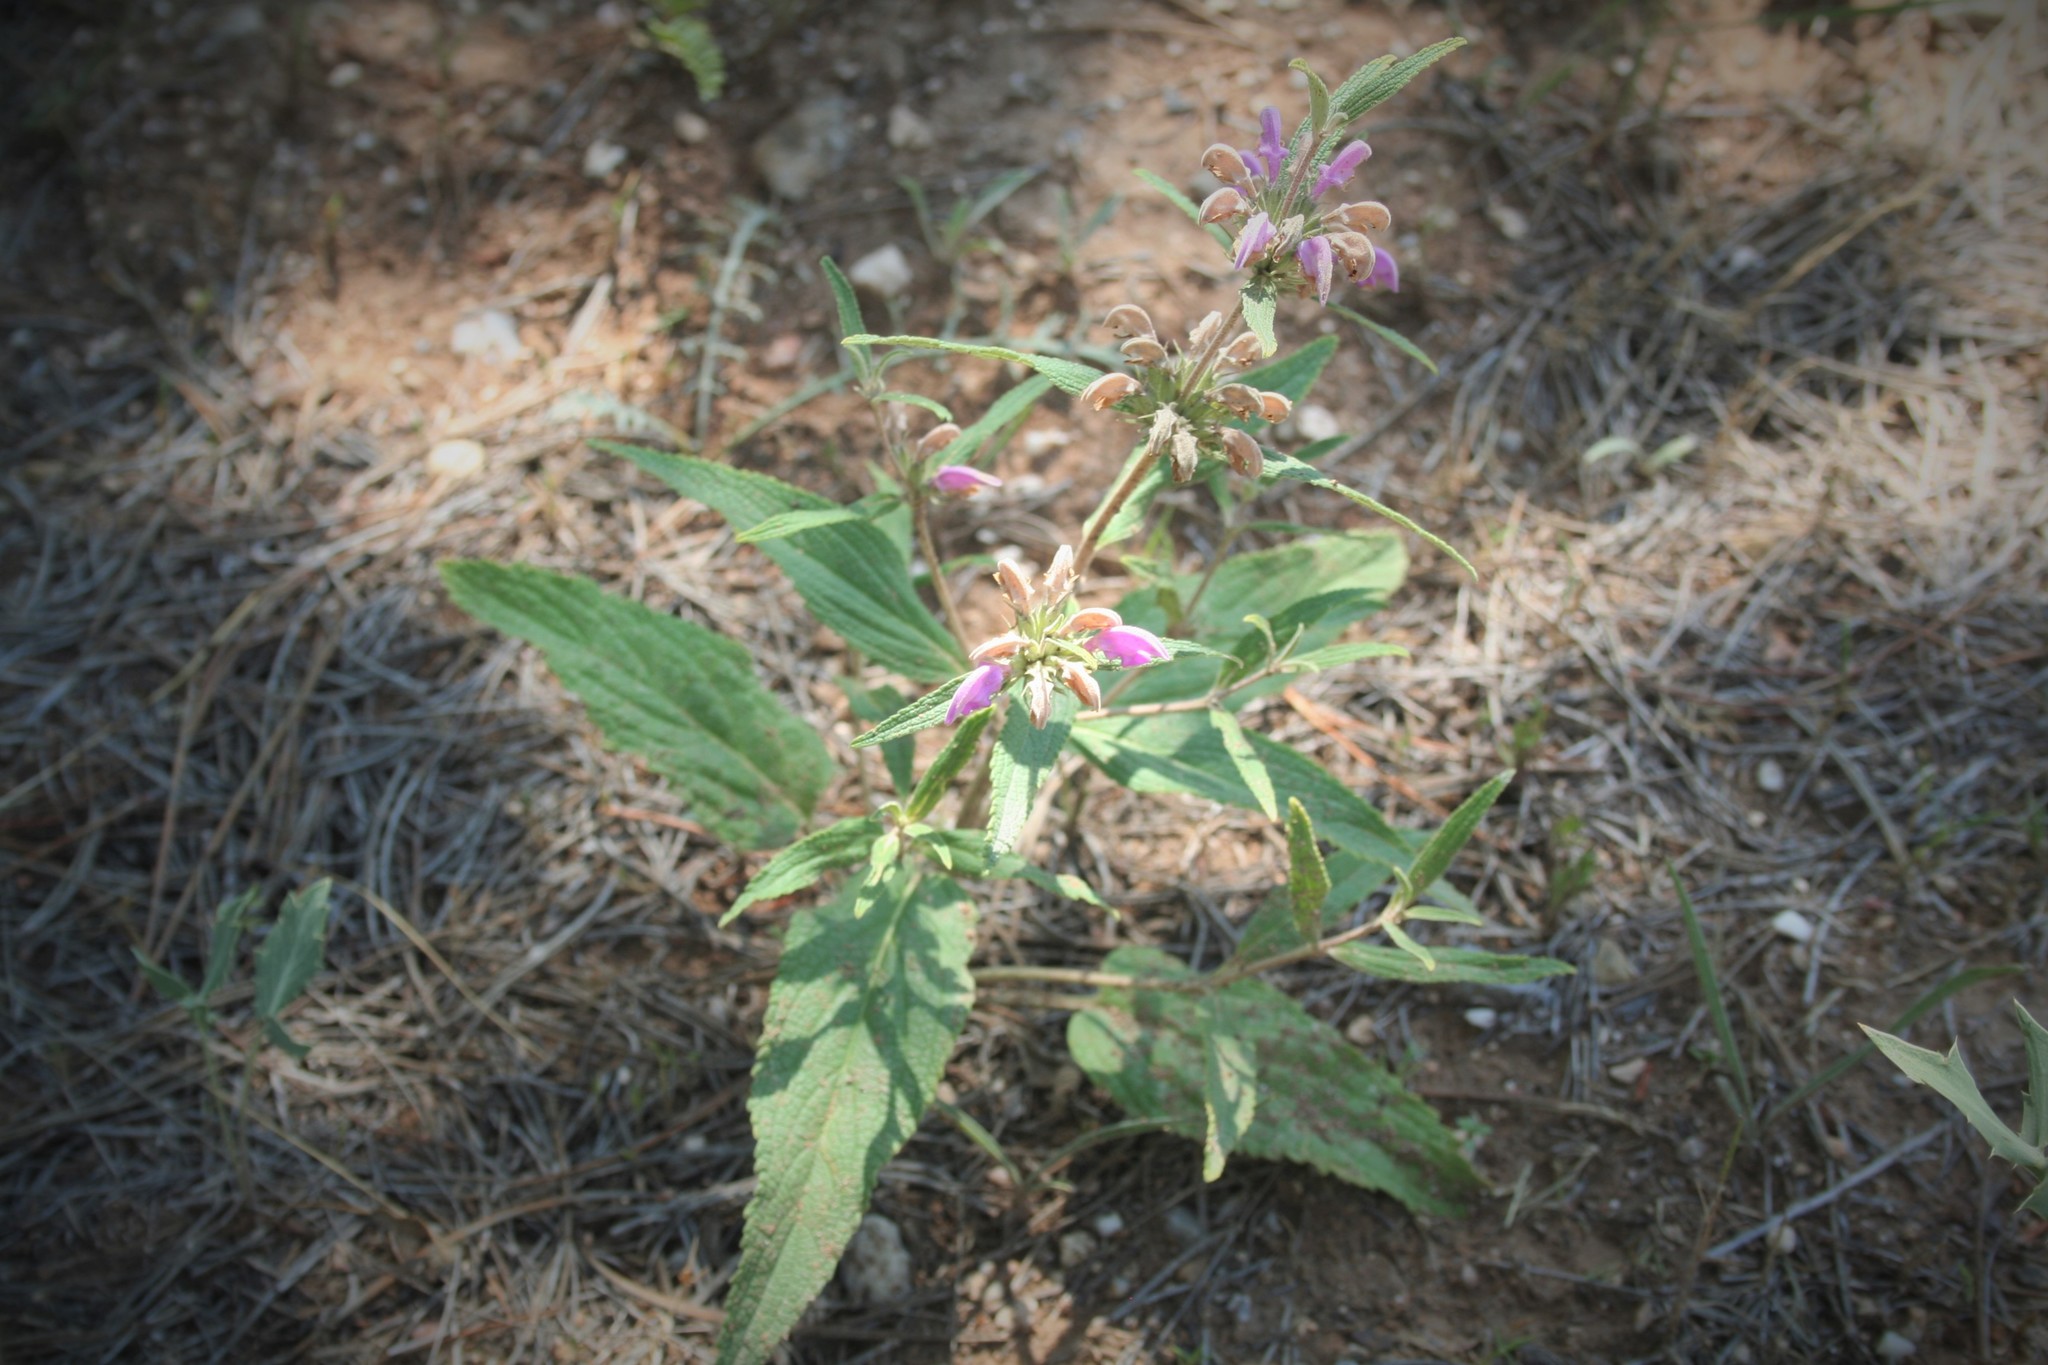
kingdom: Plantae
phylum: Tracheophyta
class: Magnoliopsida
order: Lamiales
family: Lamiaceae
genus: Phlomis
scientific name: Phlomis herba-venti
